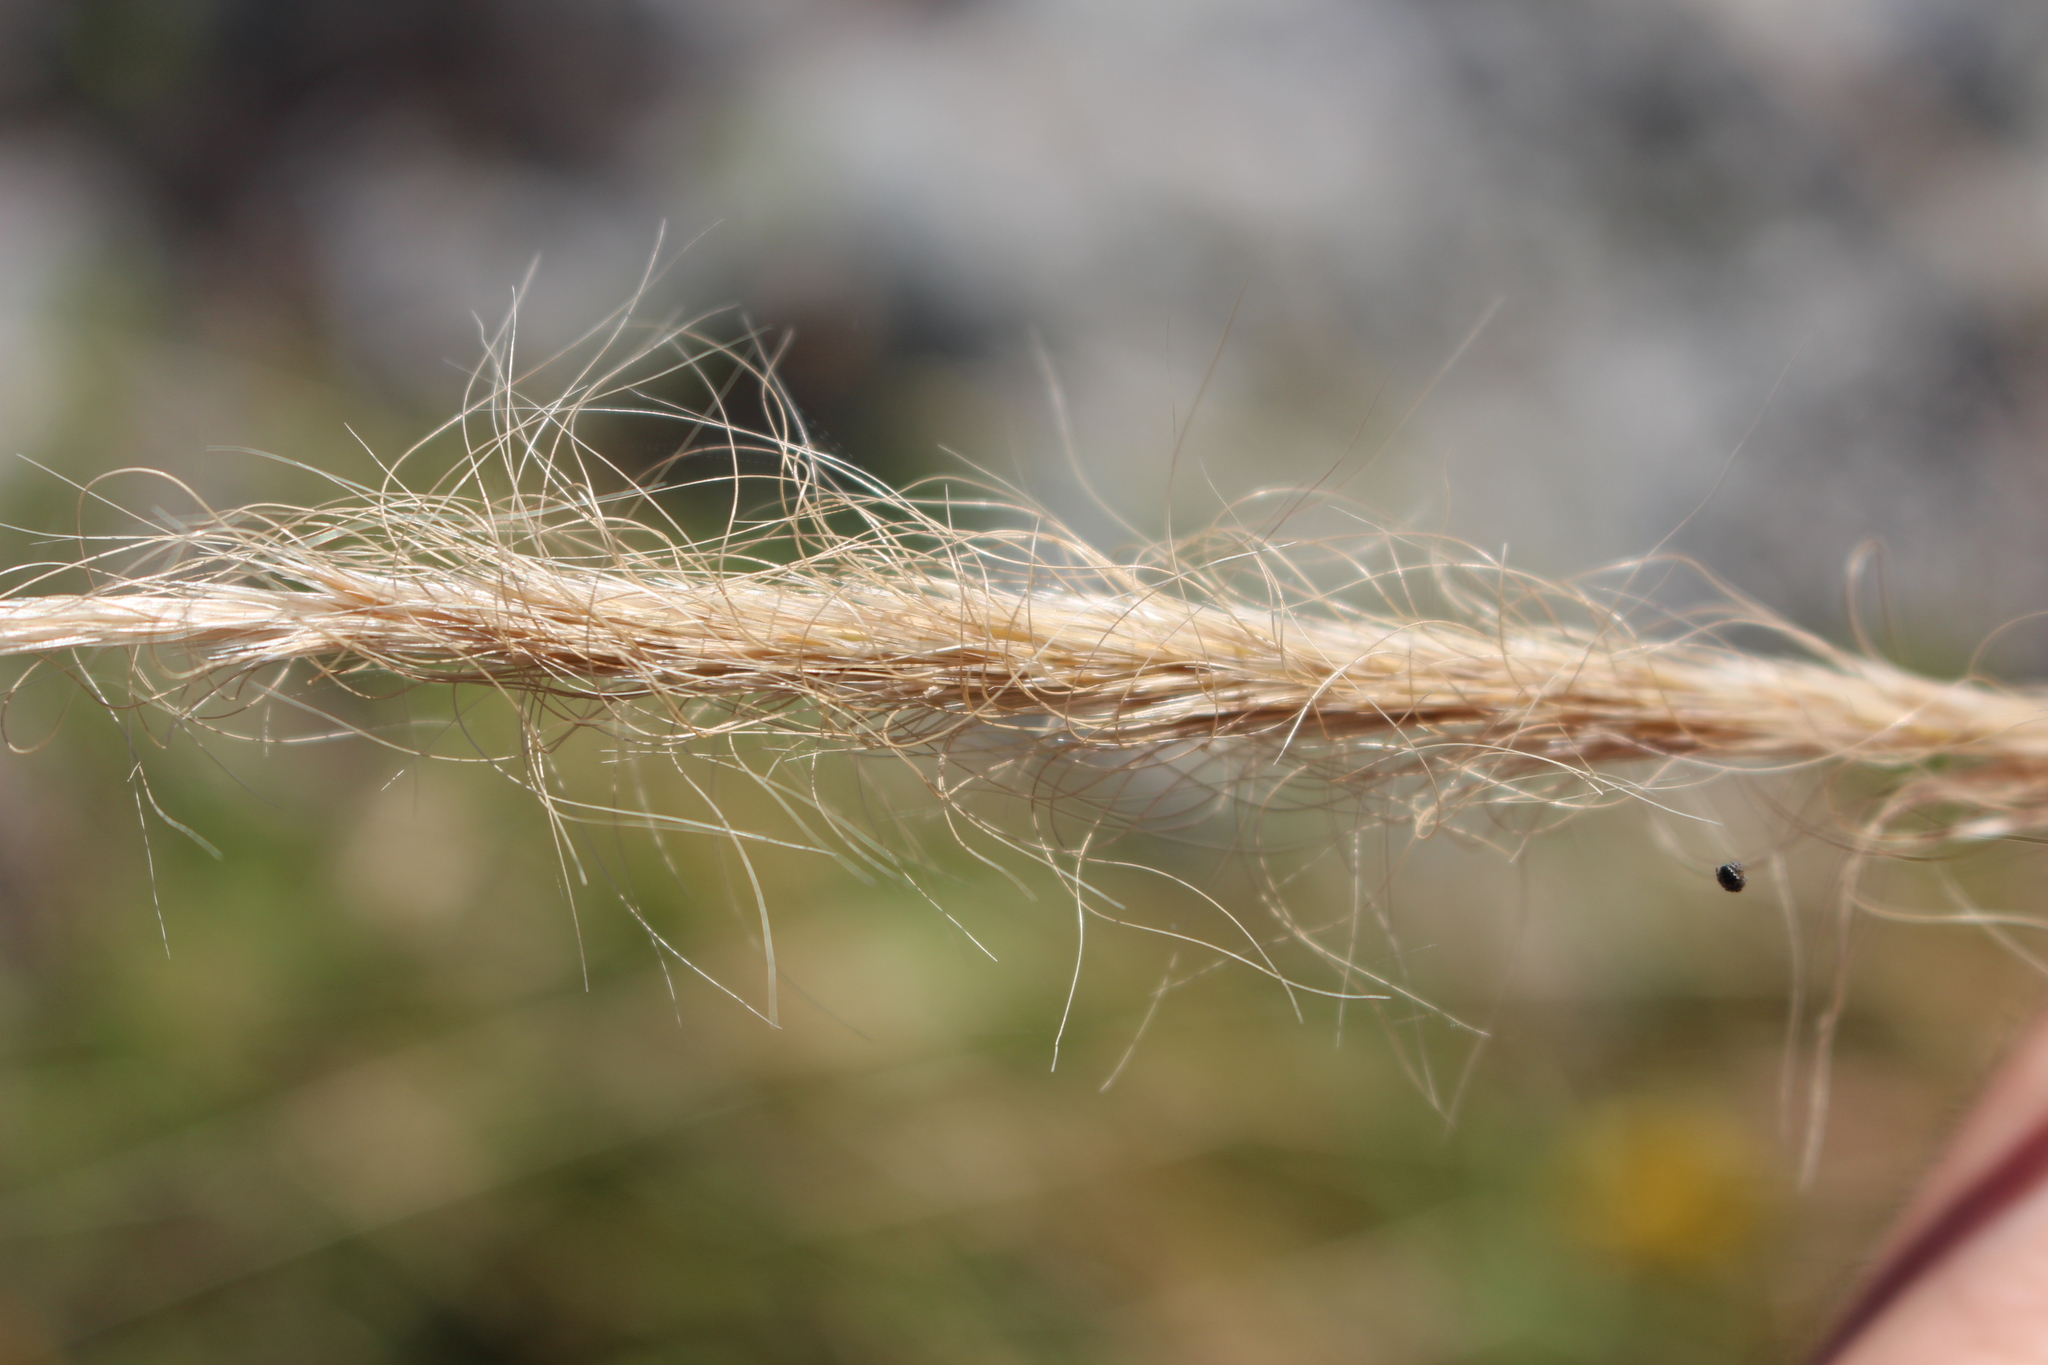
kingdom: Plantae
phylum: Tracheophyta
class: Liliopsida
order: Poales
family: Poaceae
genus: Dichelachne
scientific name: Dichelachne crinita
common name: Clovenfoot plumegrass
